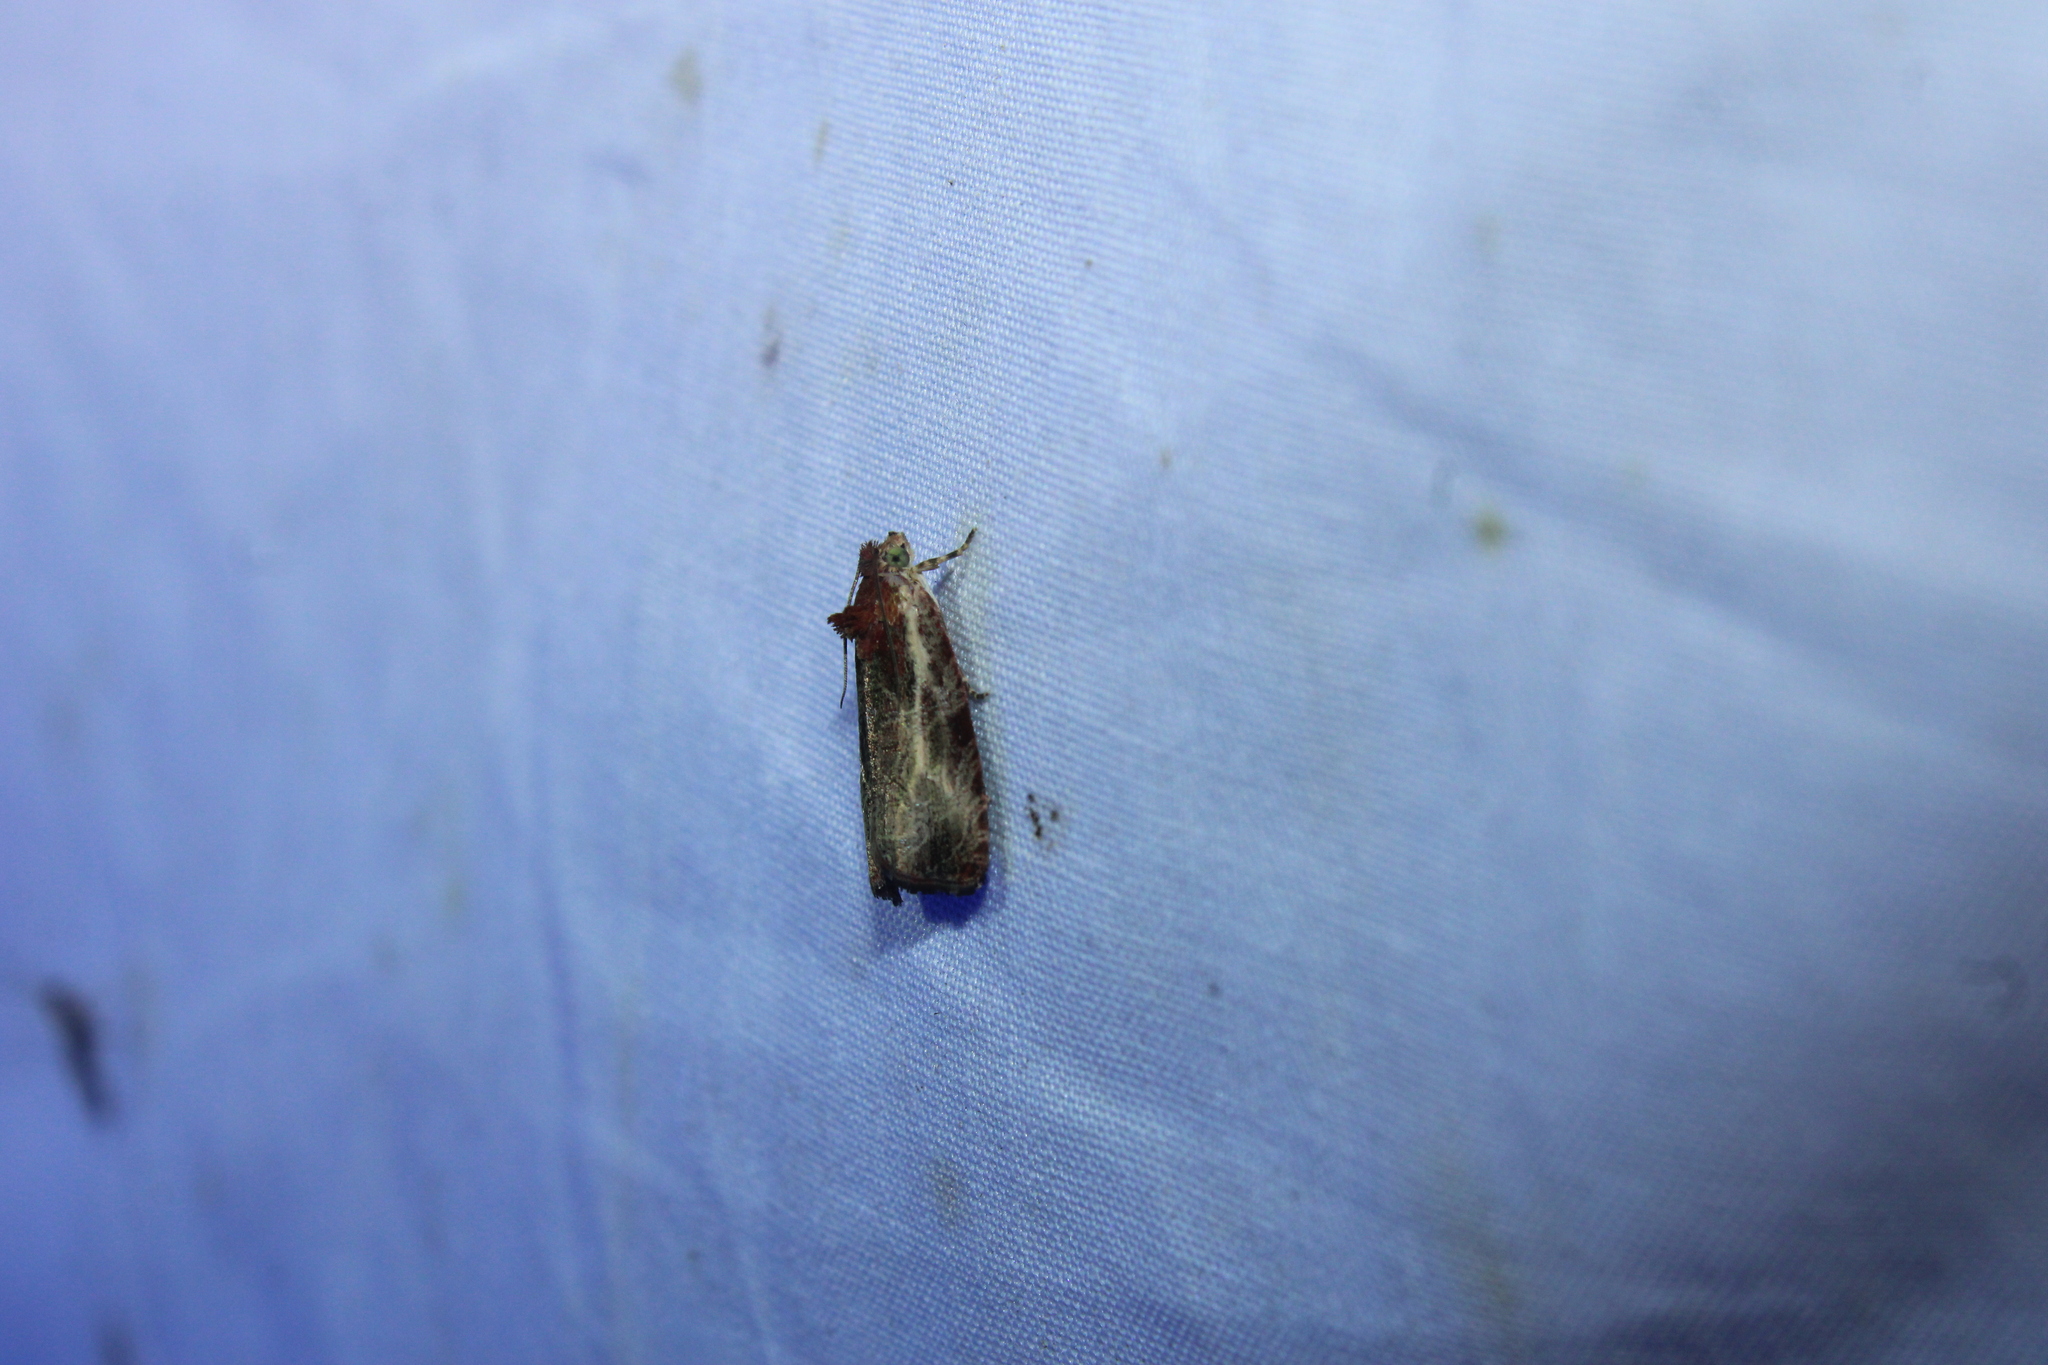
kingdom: Animalia
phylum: Arthropoda
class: Insecta
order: Lepidoptera
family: Tortricidae
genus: Olethreutes
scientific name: Olethreutes inornatana
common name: Inornate olethreutes moth
